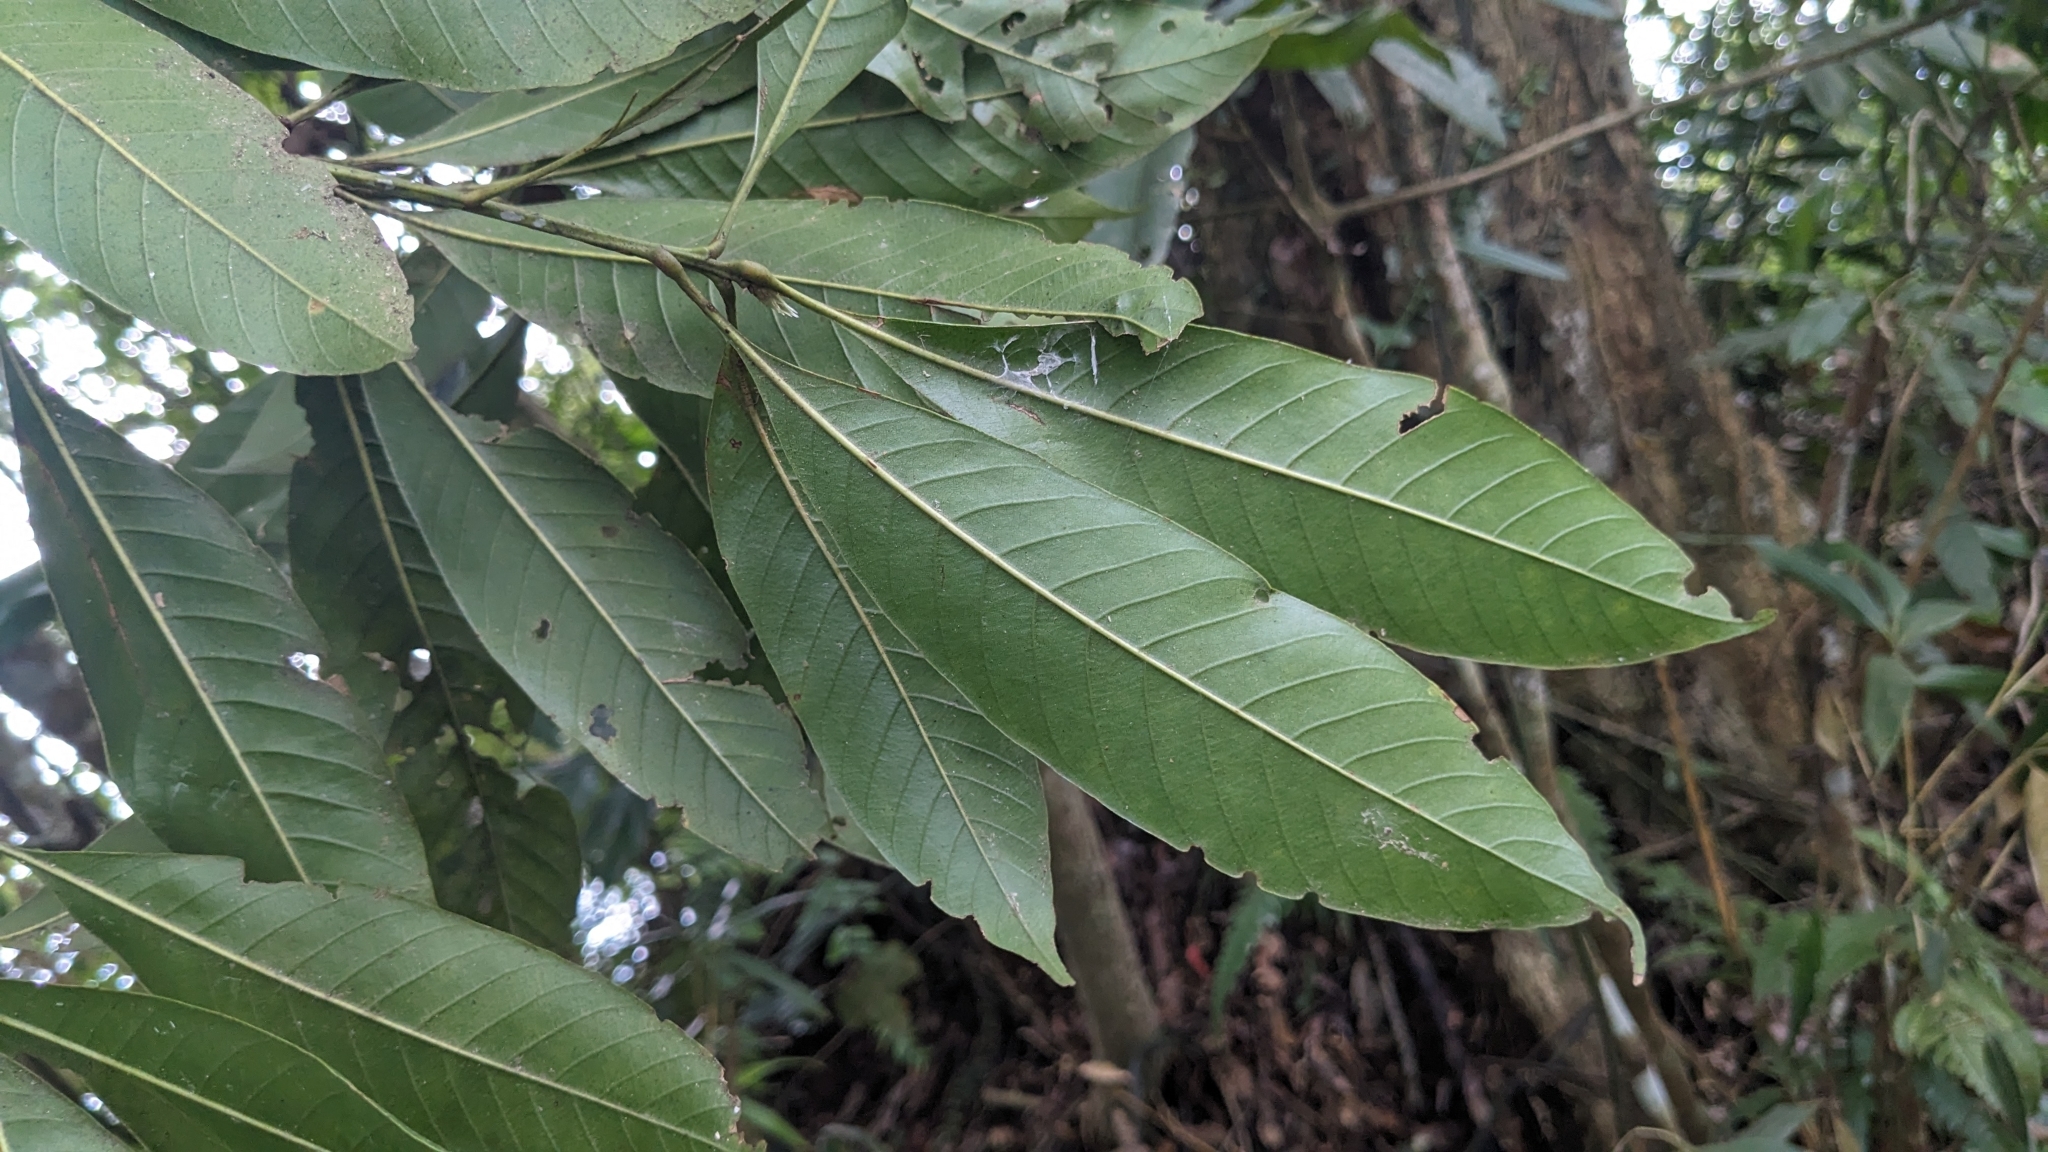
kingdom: Plantae
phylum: Tracheophyta
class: Magnoliopsida
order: Fagales
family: Fagaceae
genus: Lithocarpus
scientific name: Lithocarpus brevicaudatus
